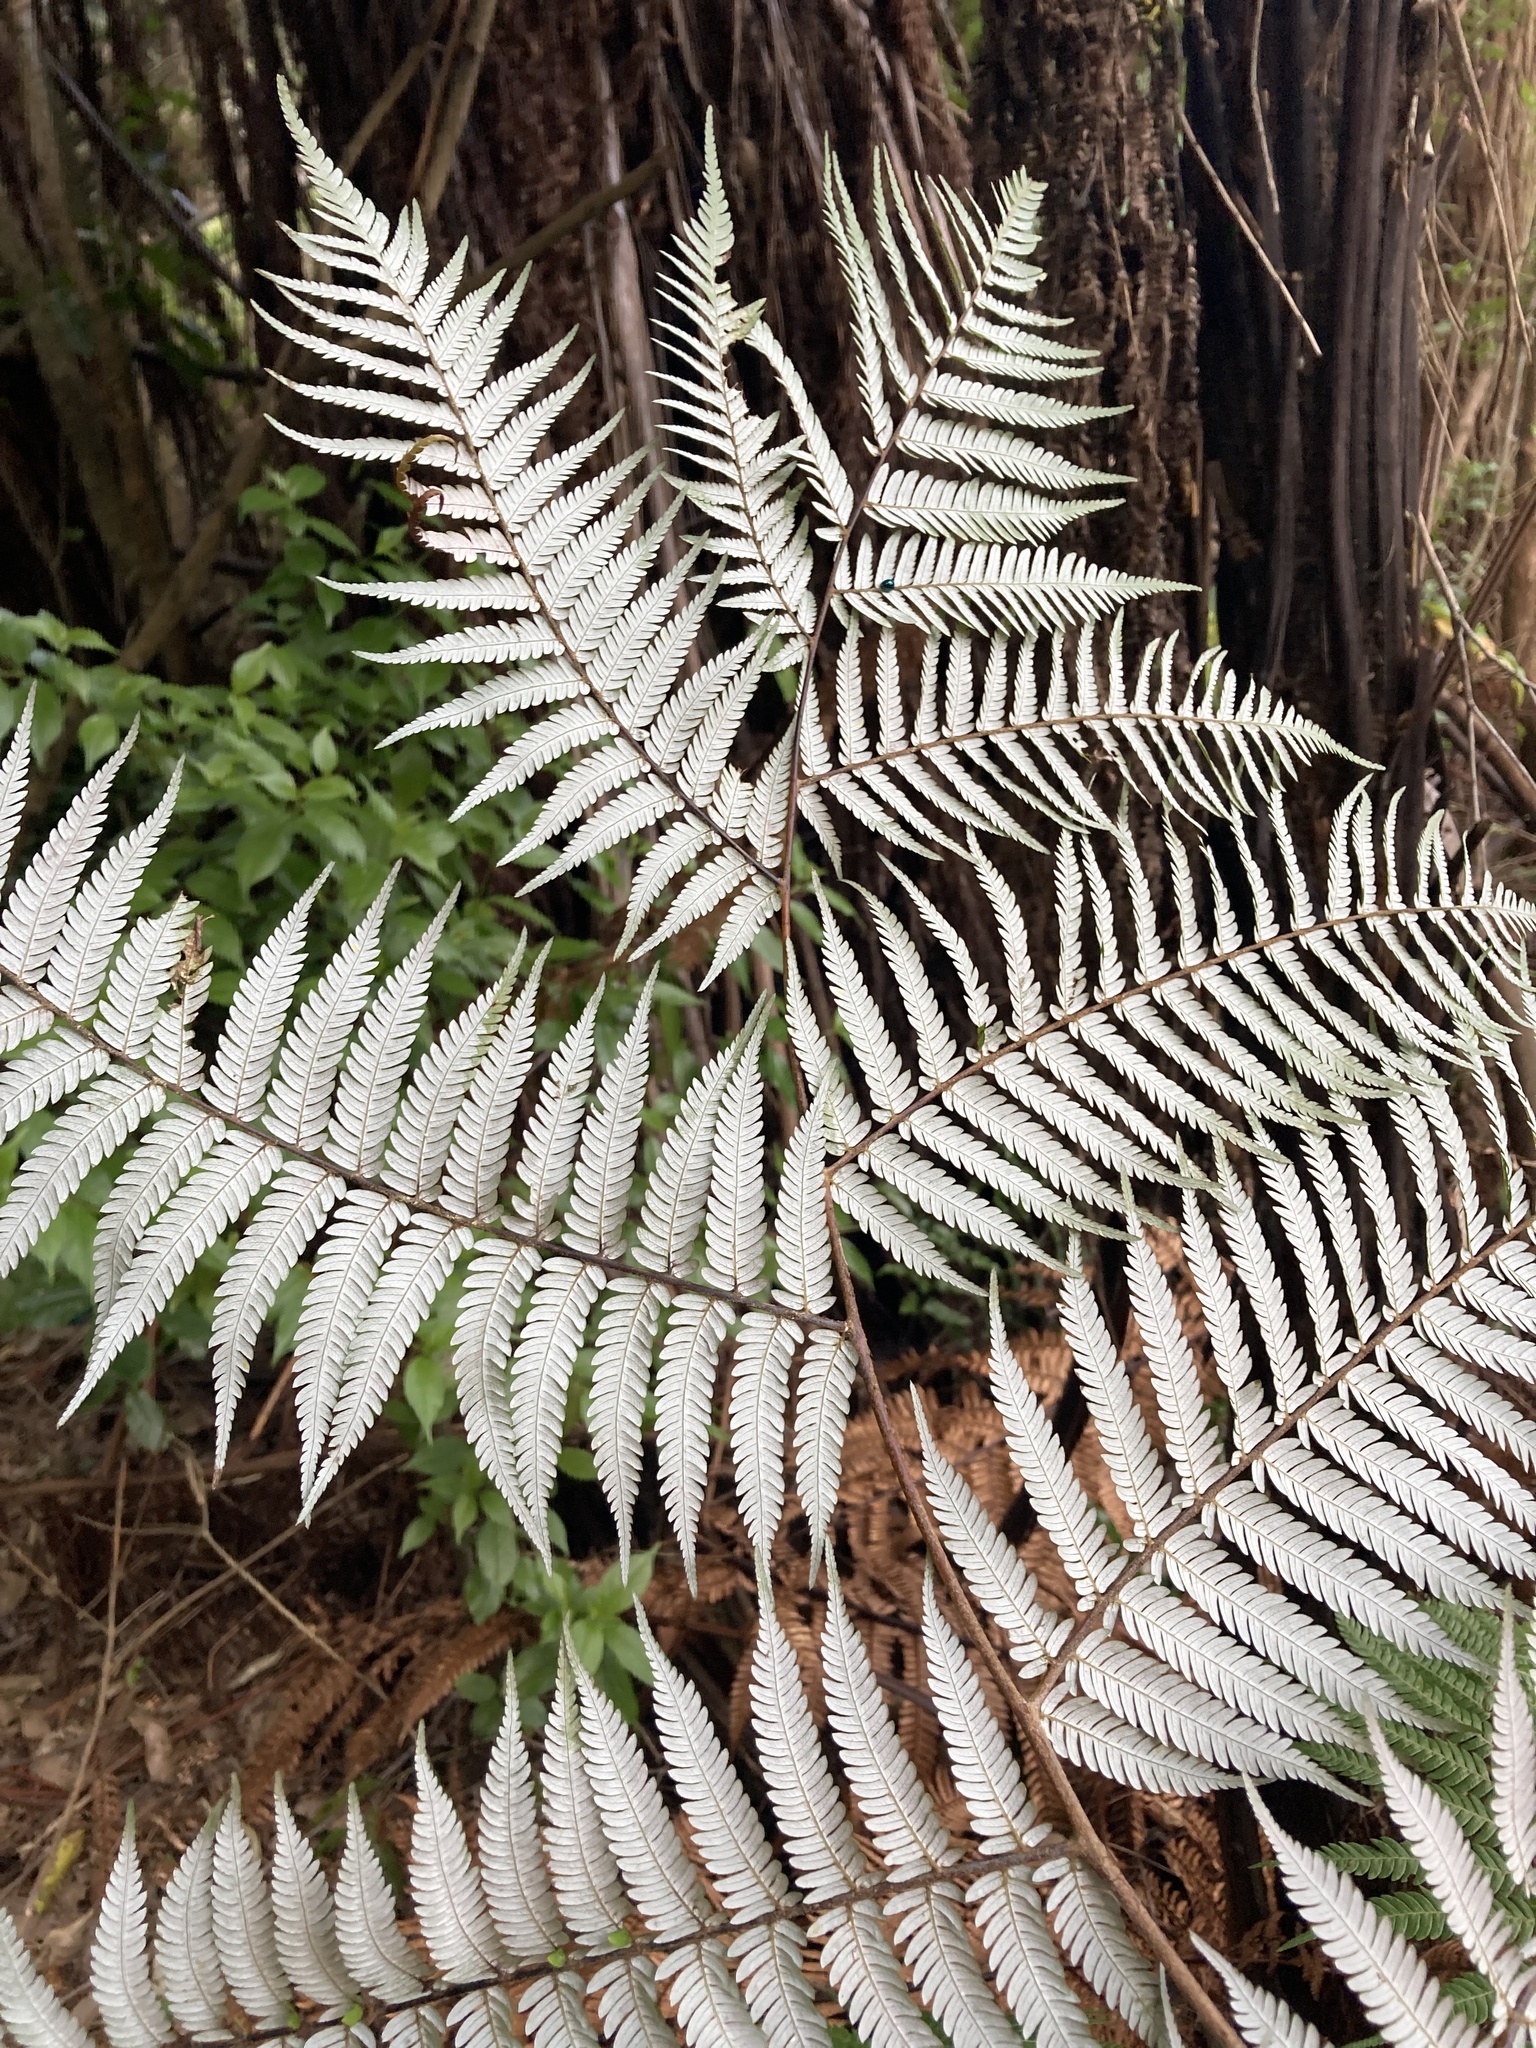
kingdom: Plantae
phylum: Tracheophyta
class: Polypodiopsida
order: Cyatheales
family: Cyatheaceae
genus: Alsophila
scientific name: Alsophila dealbata
